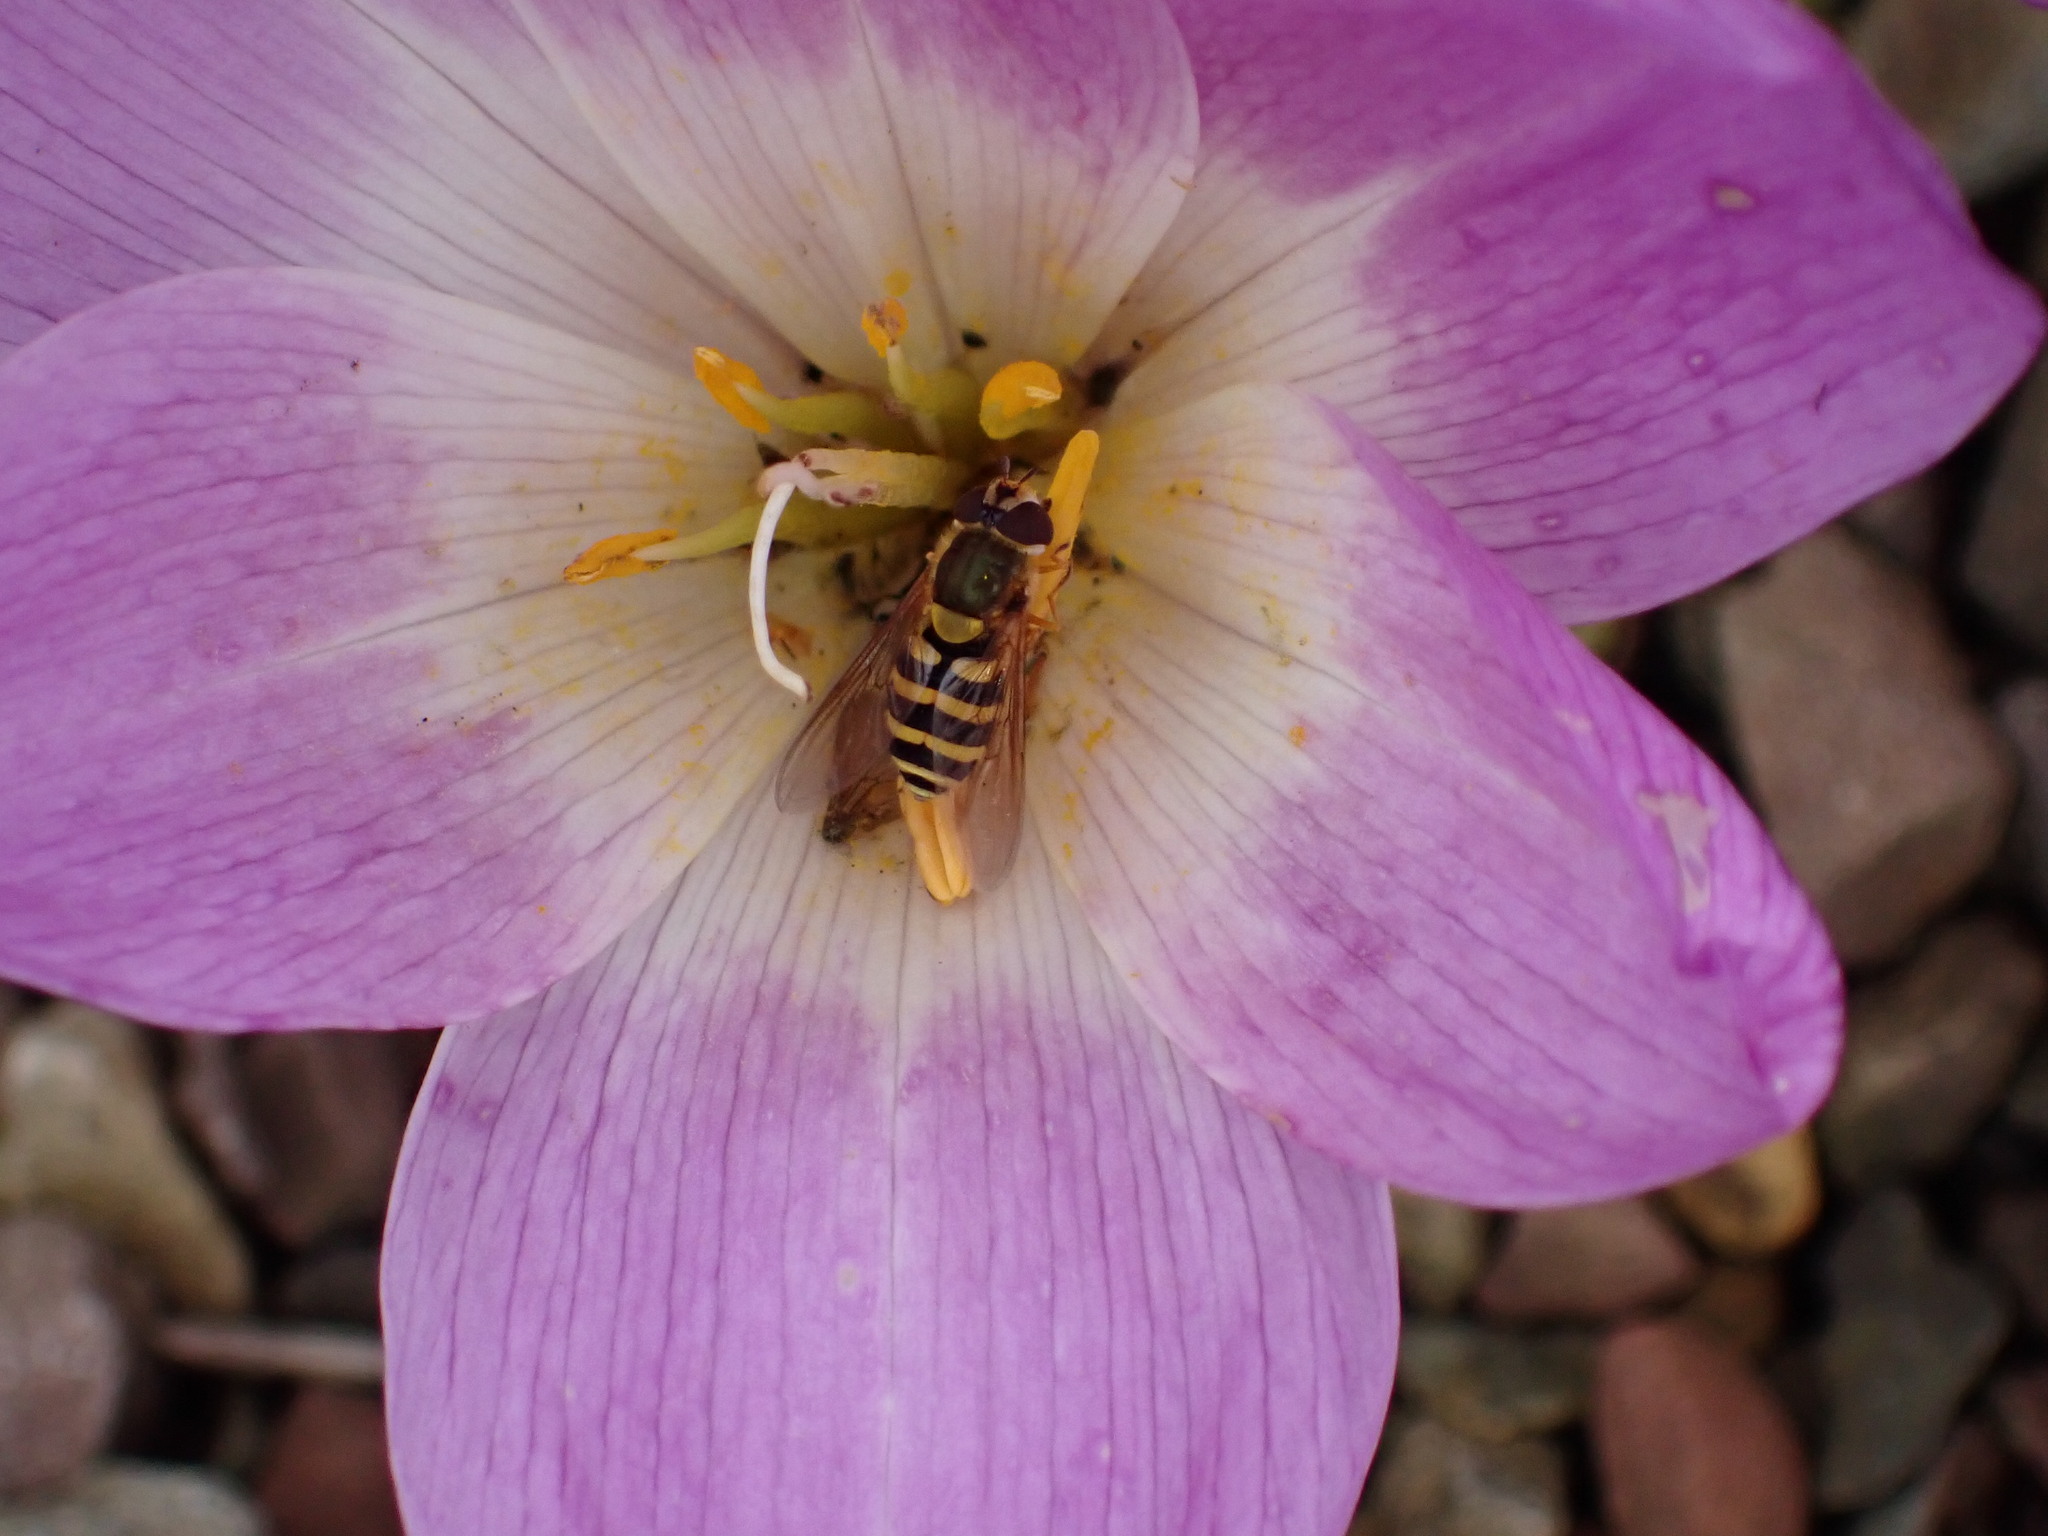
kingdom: Animalia
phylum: Arthropoda
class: Insecta
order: Diptera
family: Syrphidae
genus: Syrphus
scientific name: Syrphus
